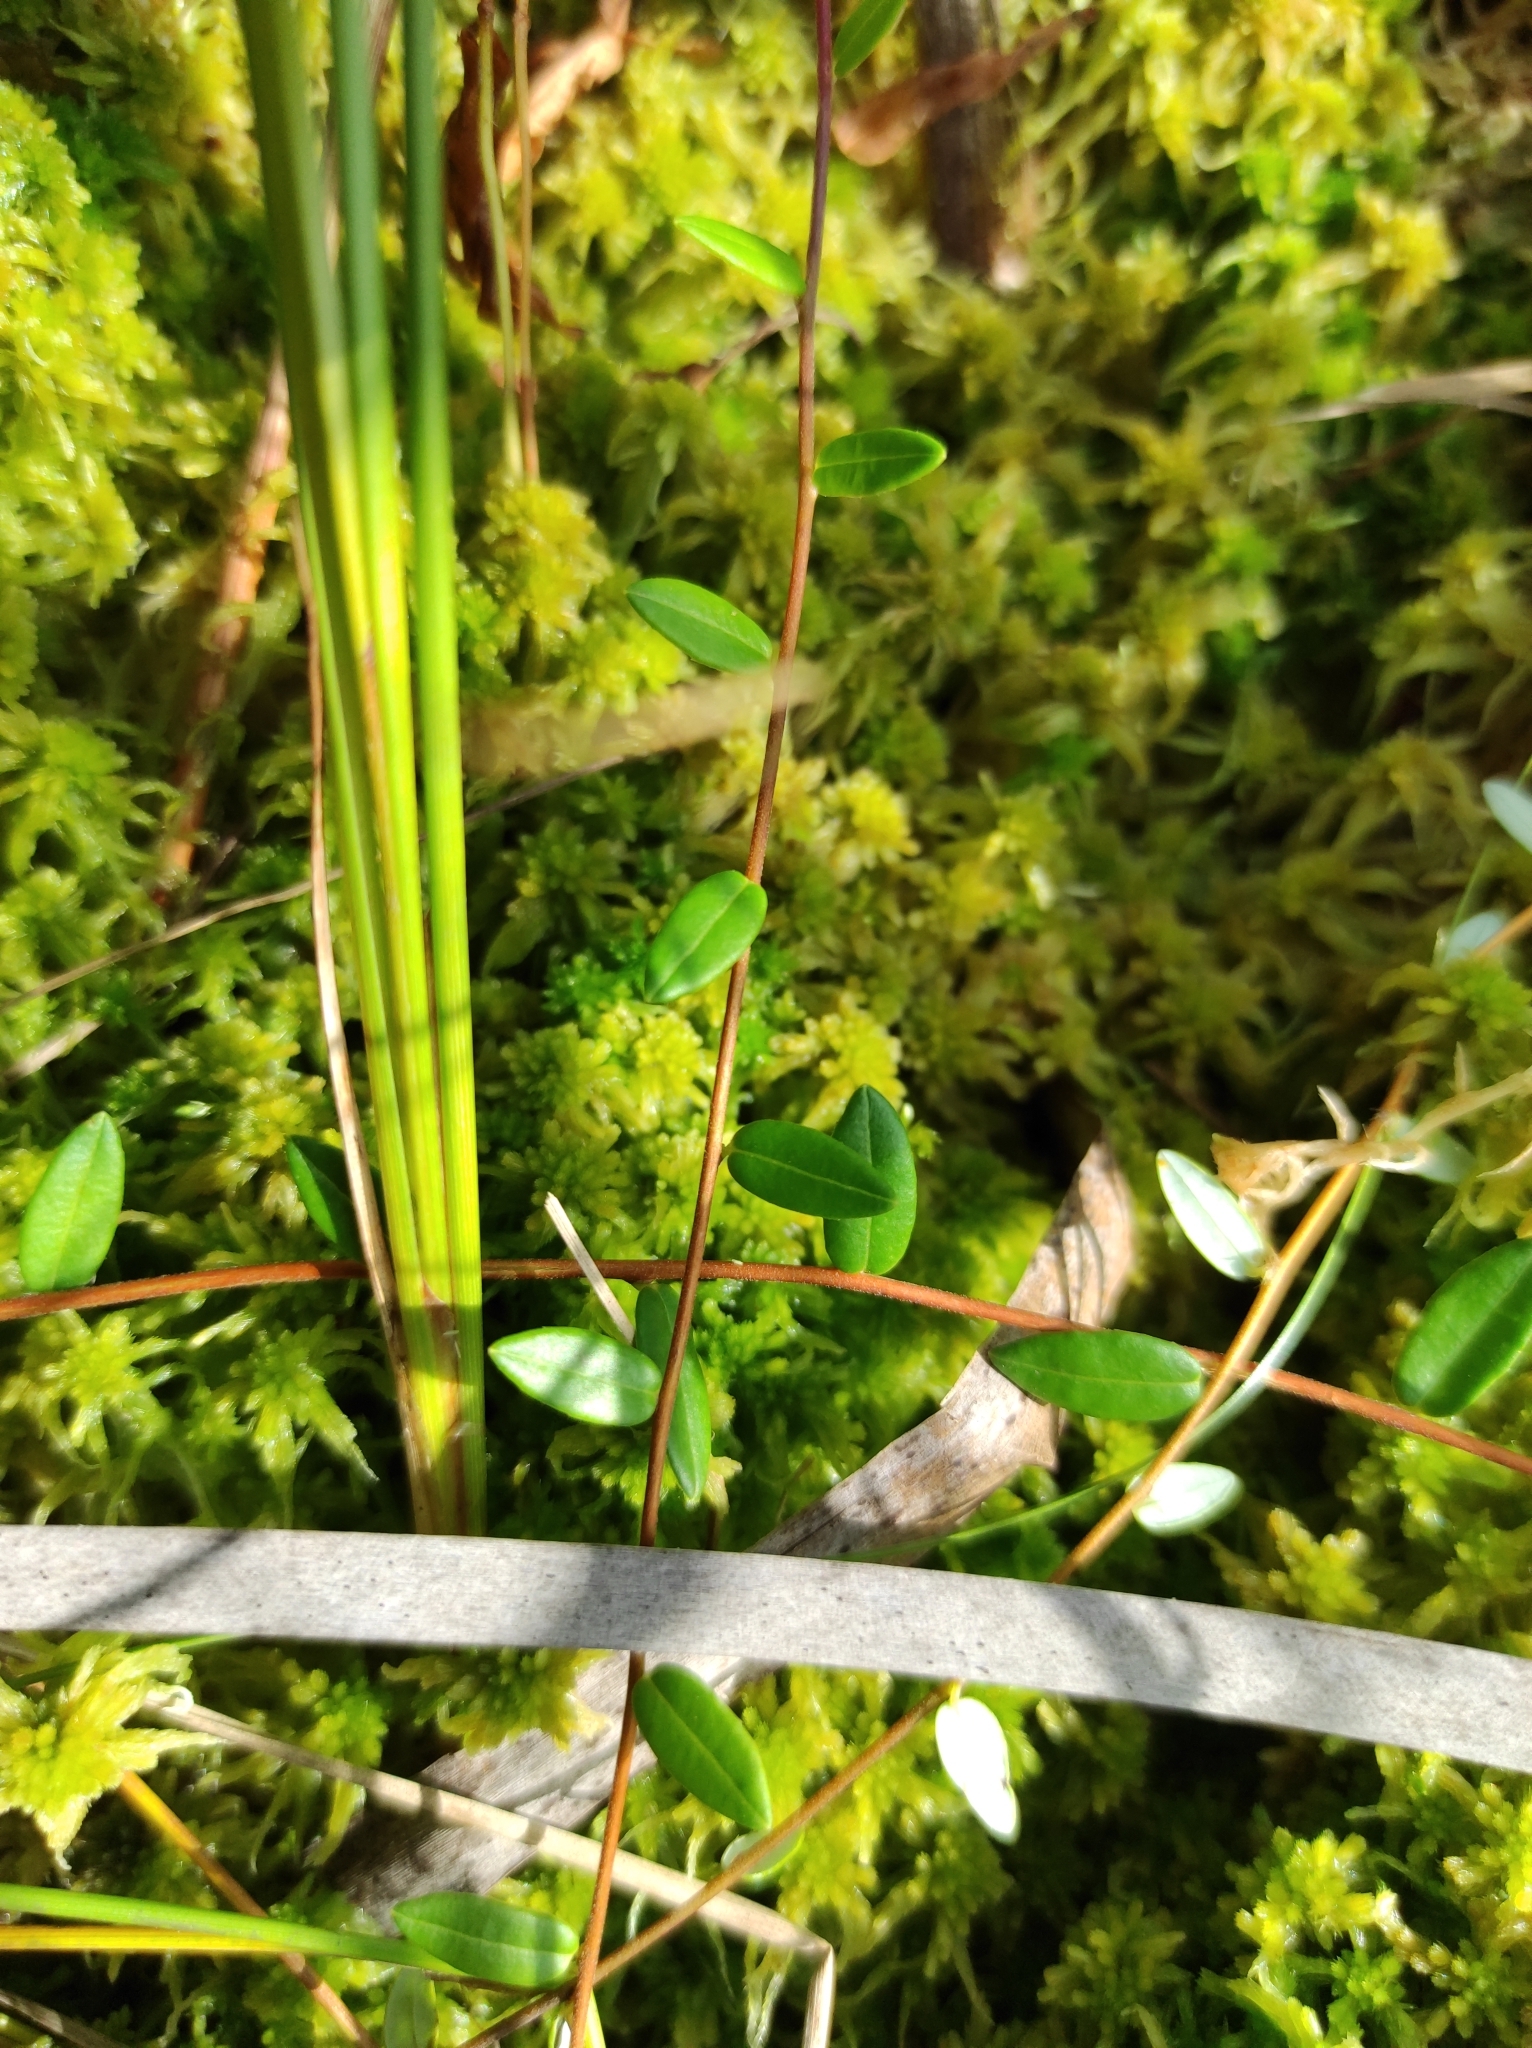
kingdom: Plantae
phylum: Tracheophyta
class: Magnoliopsida
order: Ericales
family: Ericaceae
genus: Vaccinium
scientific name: Vaccinium oxycoccos
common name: Cranberry
